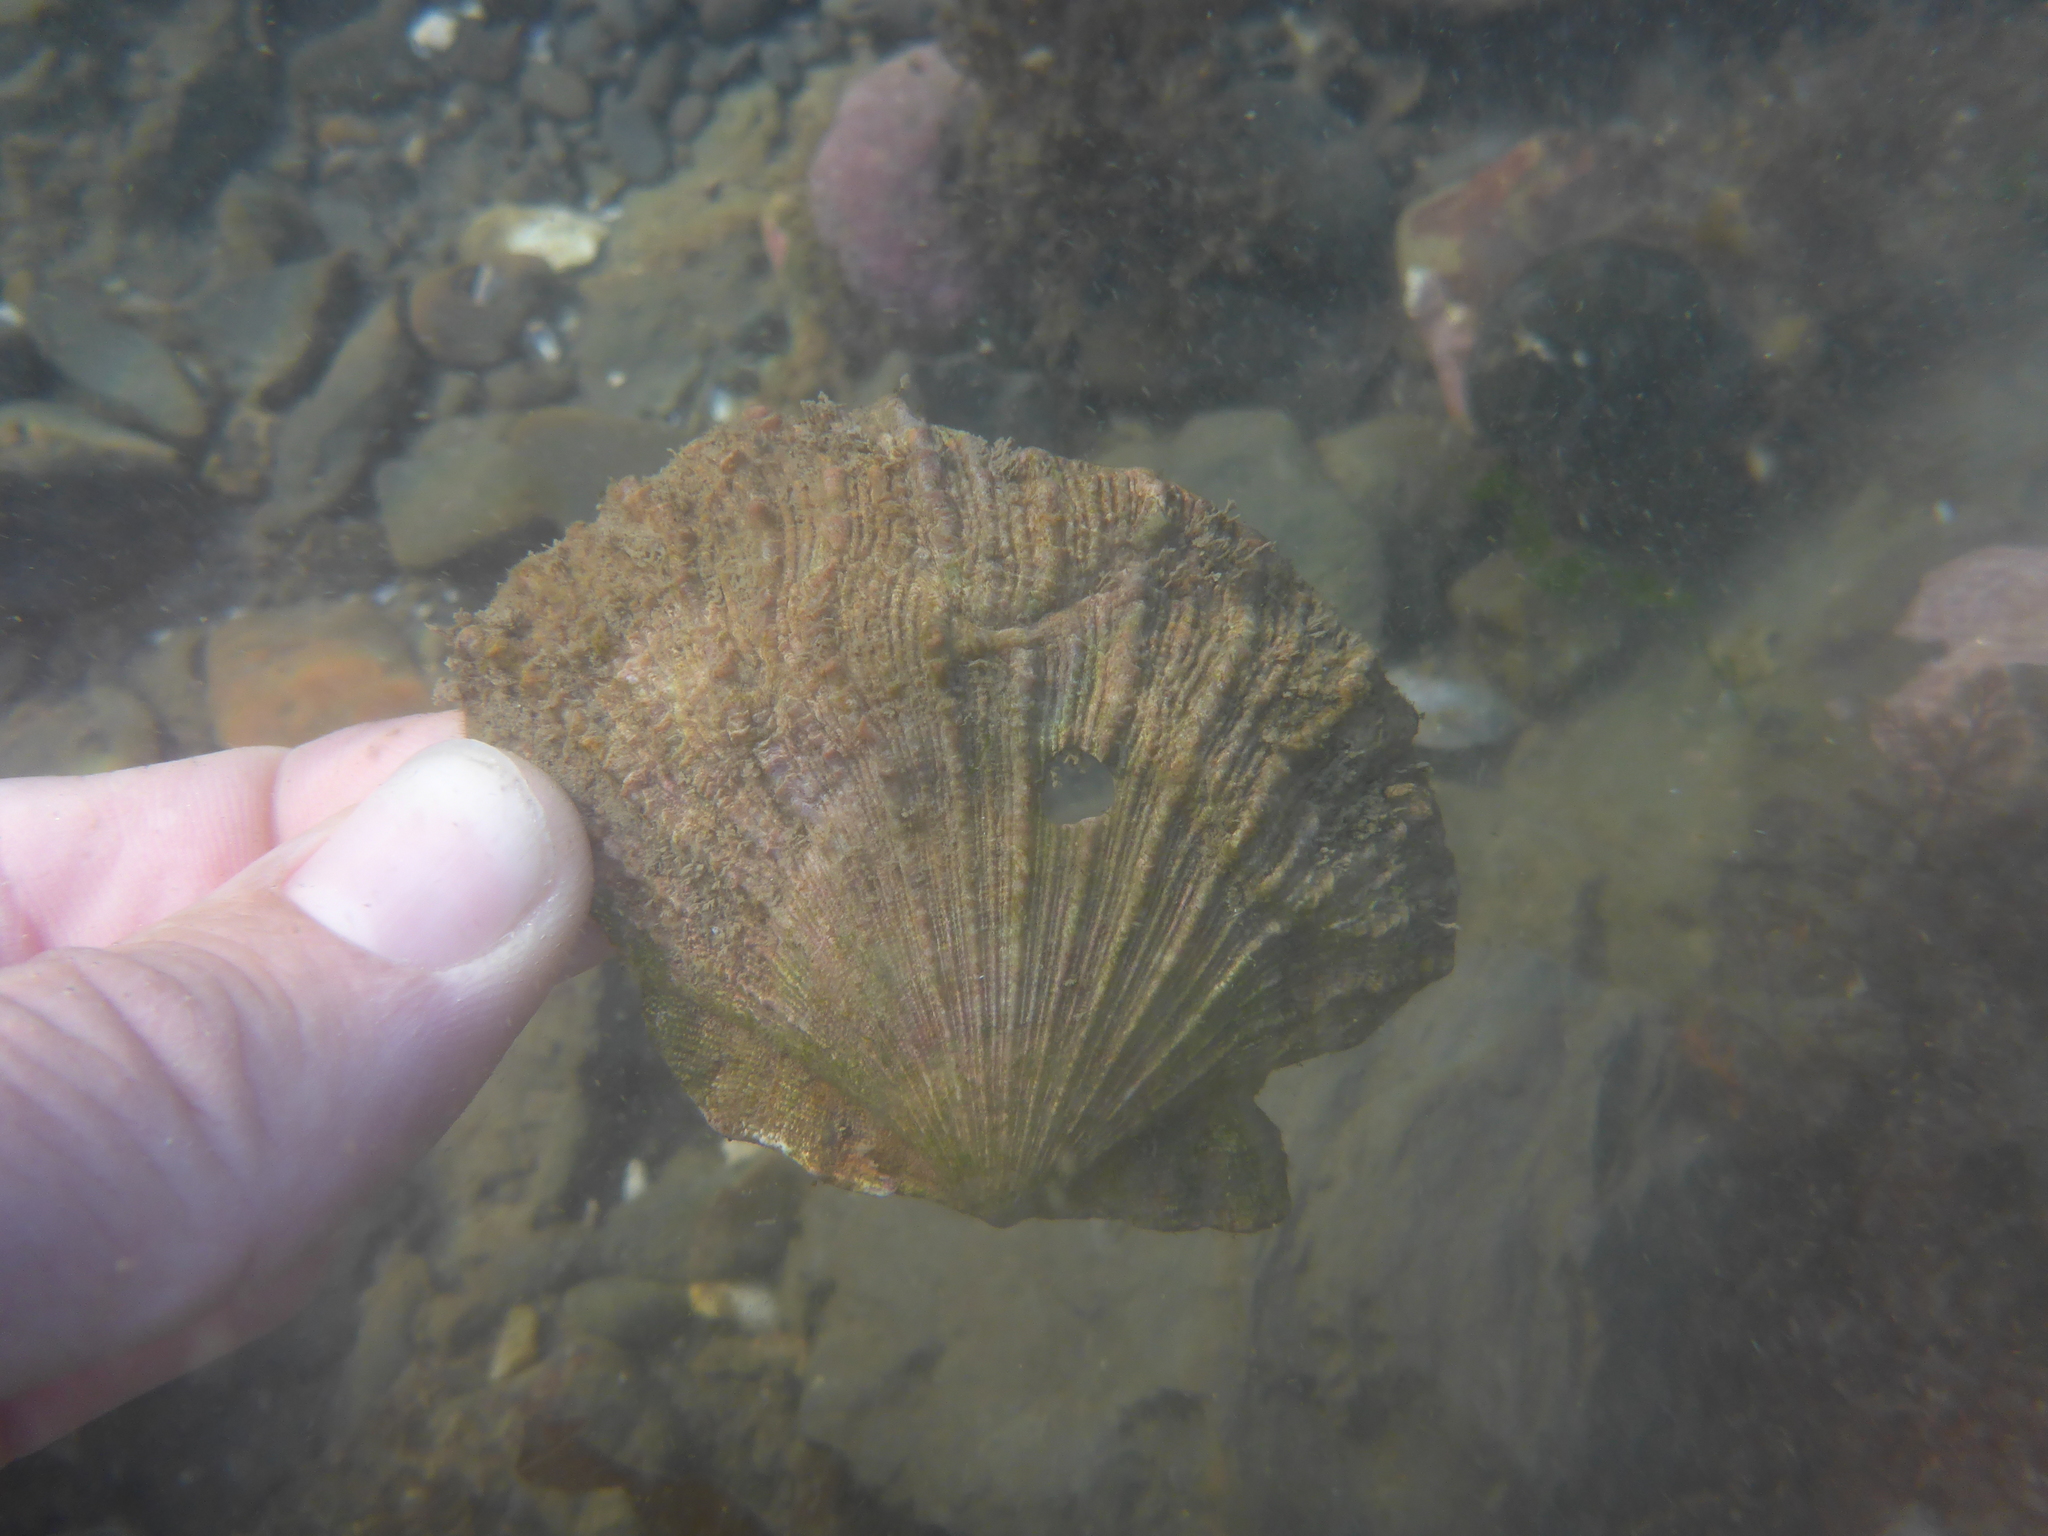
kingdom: Animalia
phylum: Mollusca
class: Bivalvia
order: Pectinida
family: Pectinidae
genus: Crassadoma
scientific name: Crassadoma gigantea
